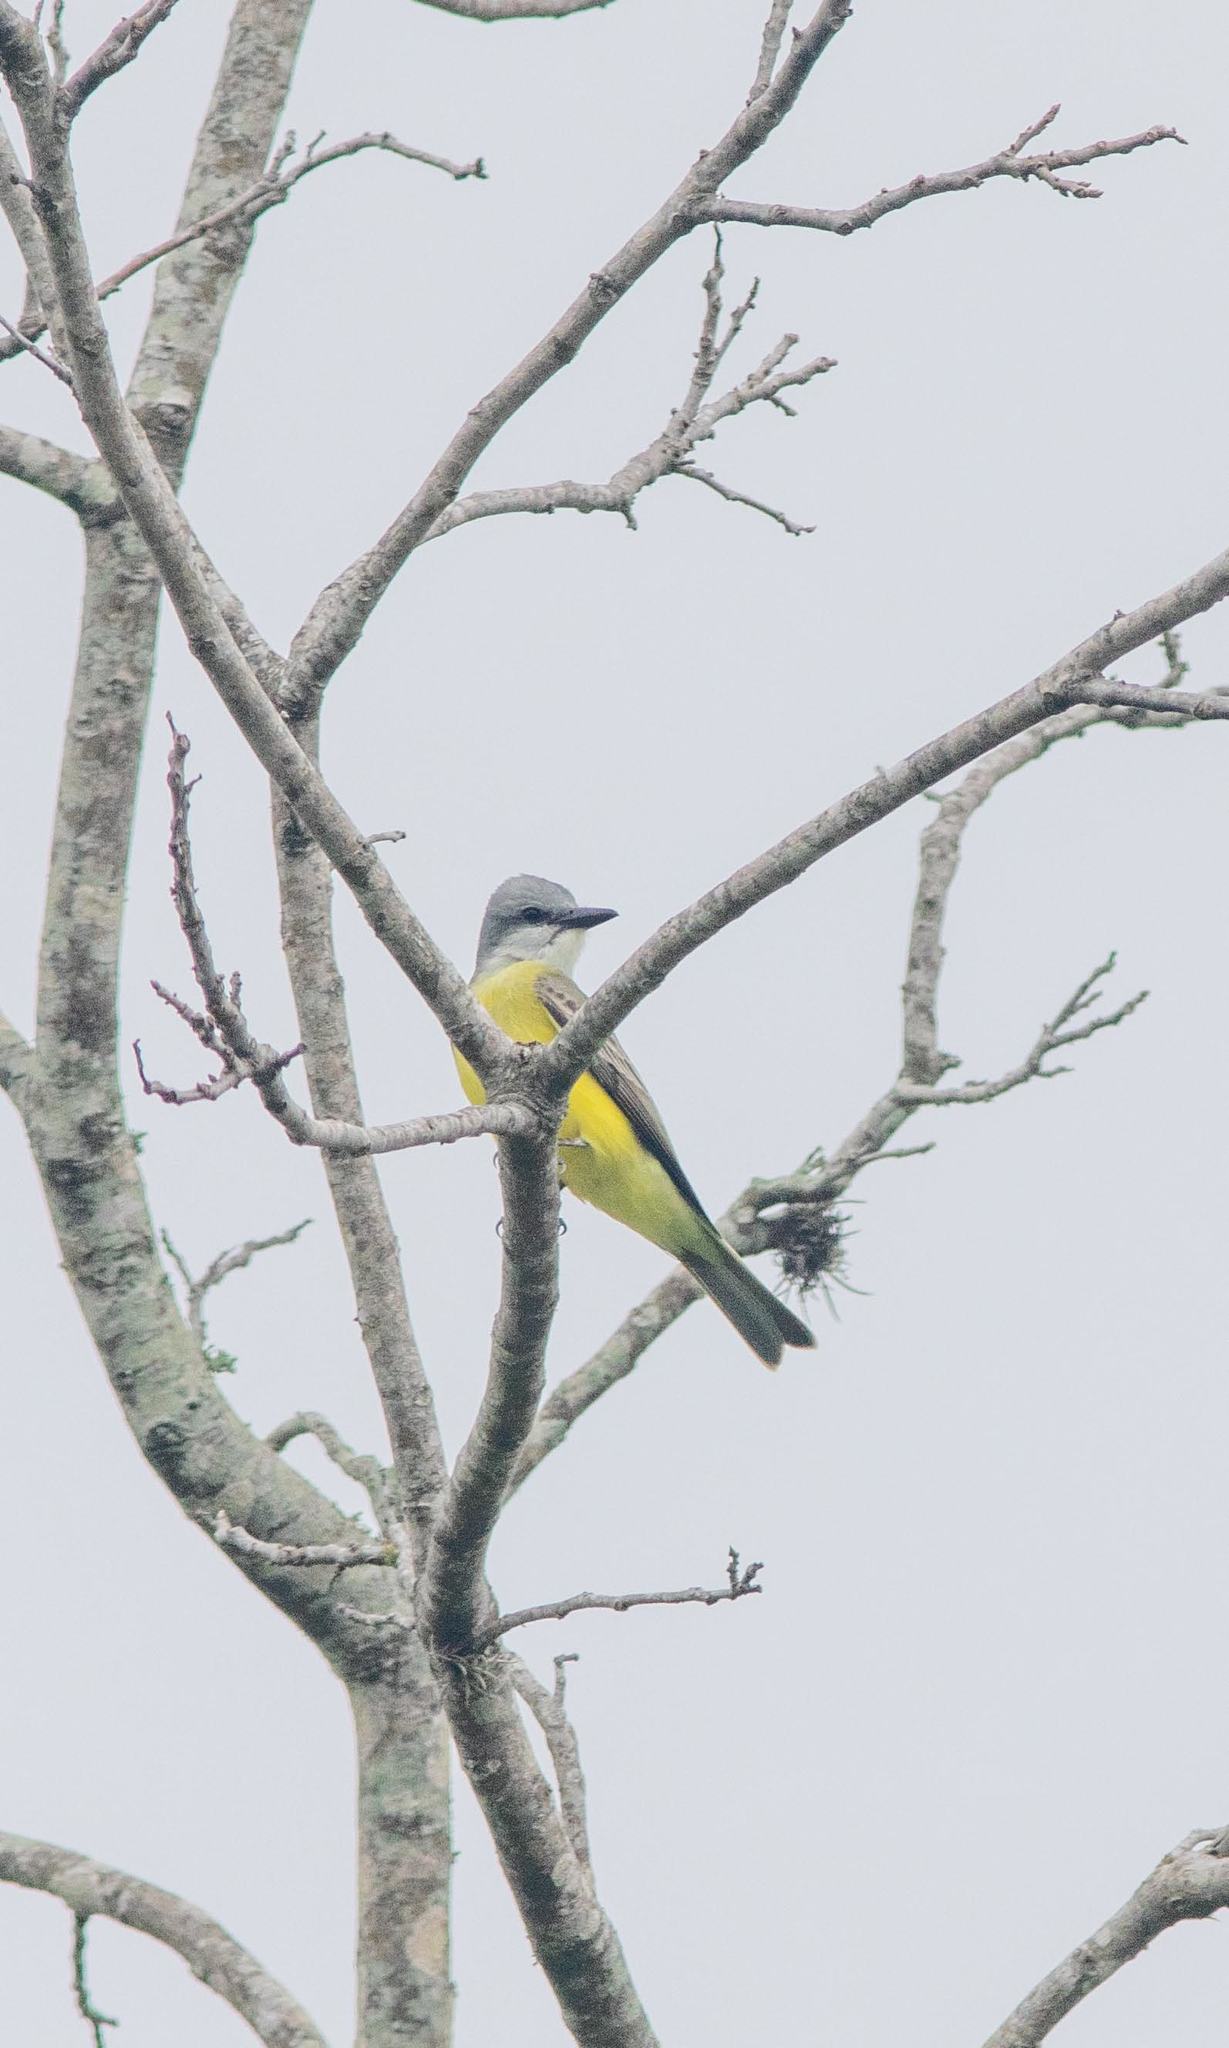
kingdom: Animalia
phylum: Chordata
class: Aves
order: Passeriformes
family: Tyrannidae
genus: Tyrannus
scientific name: Tyrannus couchii
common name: Couch's kingbird
